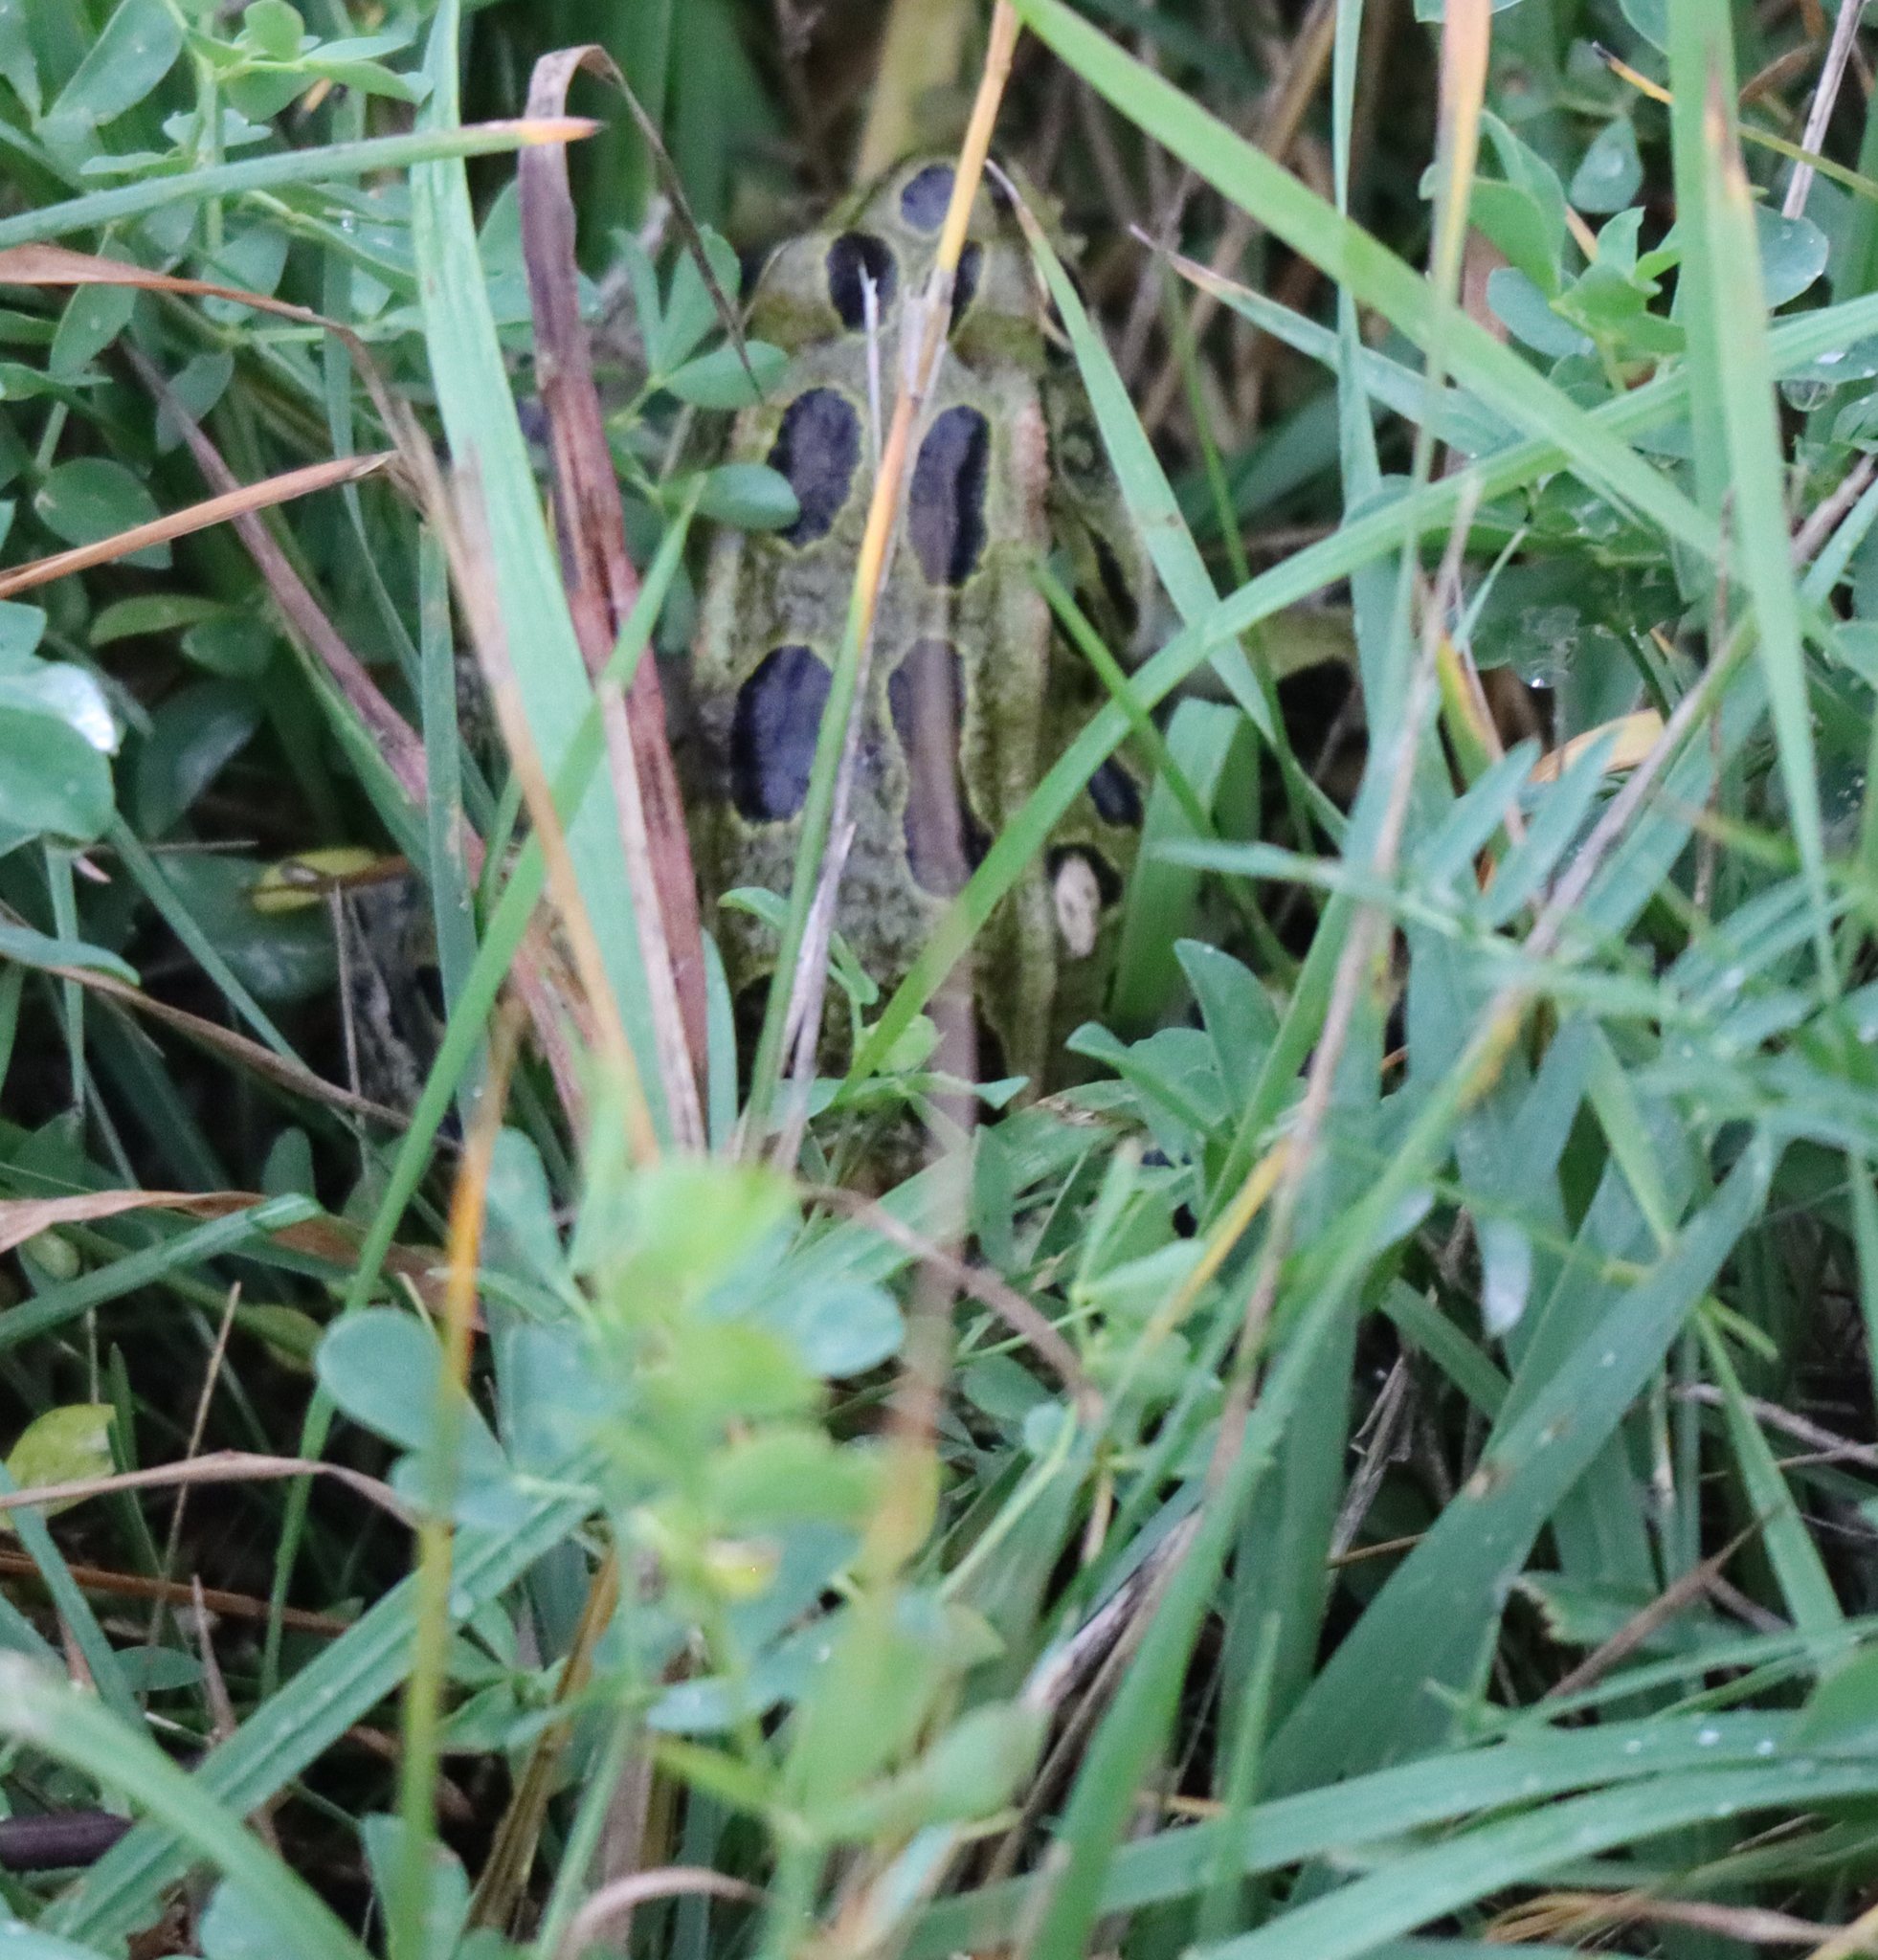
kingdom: Animalia
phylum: Chordata
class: Amphibia
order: Anura
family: Ranidae
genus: Lithobates
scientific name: Lithobates pipiens
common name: Northern leopard frog
